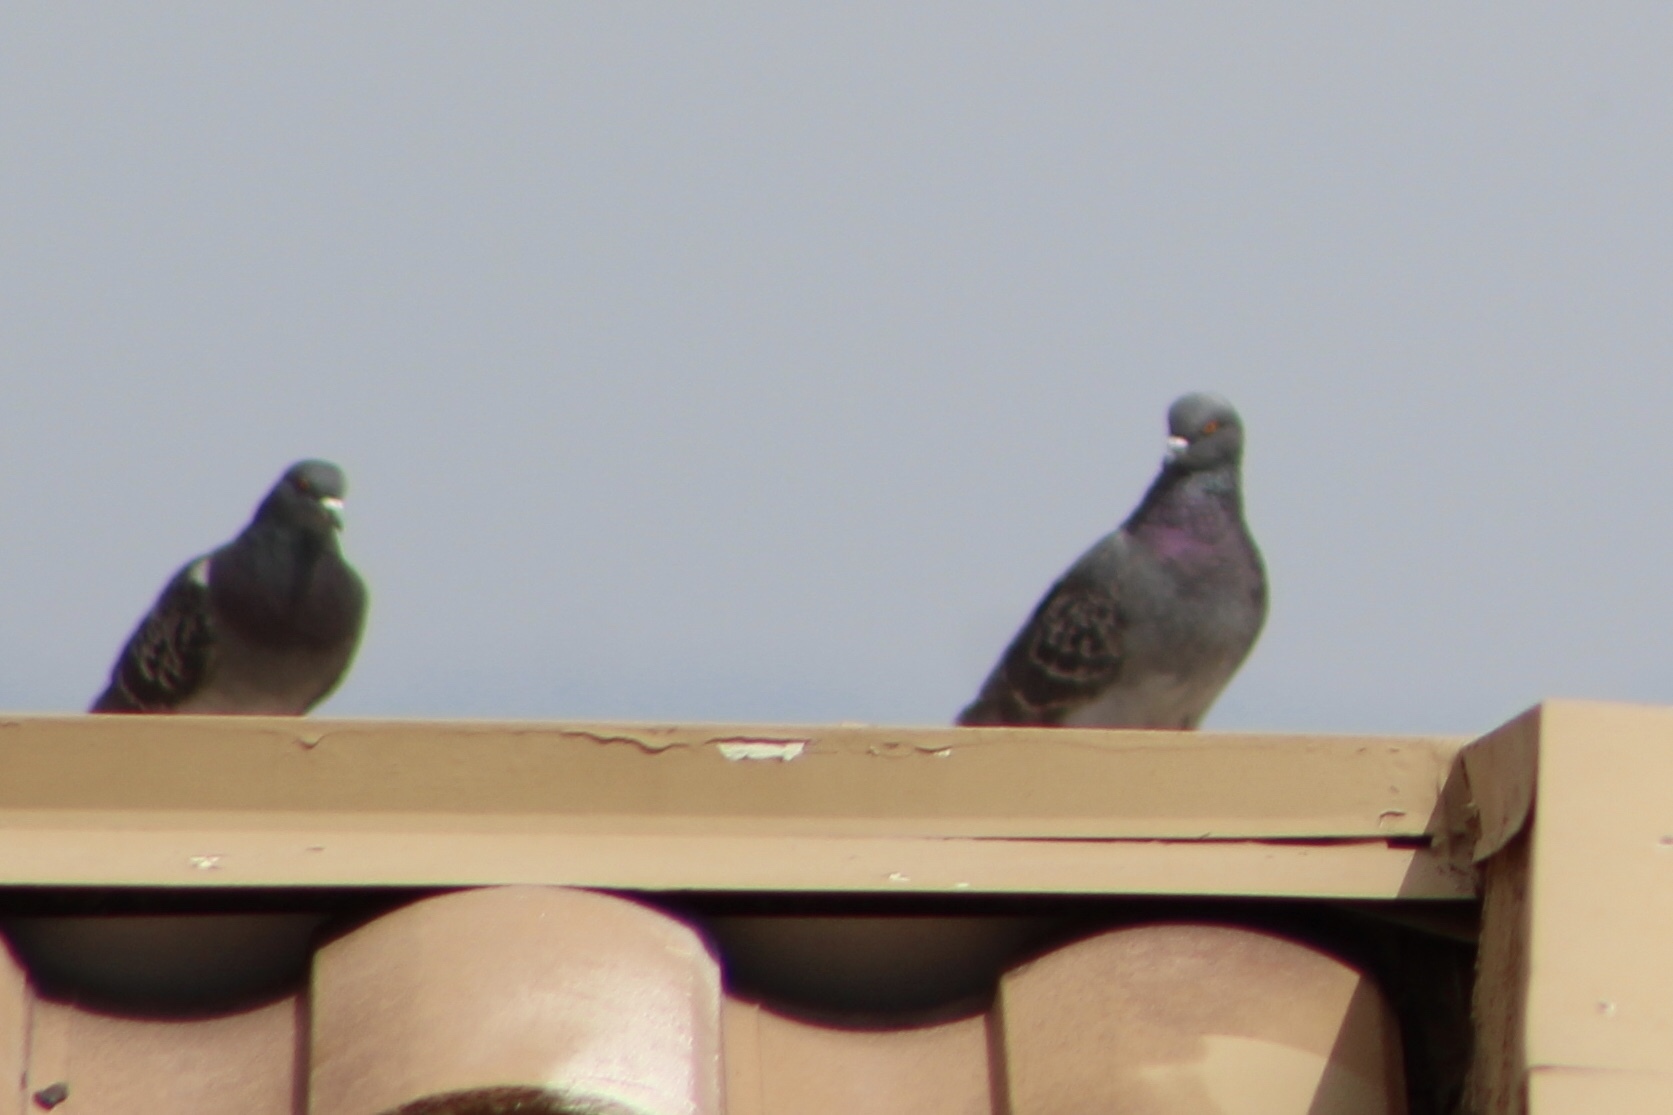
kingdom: Animalia
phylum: Chordata
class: Aves
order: Columbiformes
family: Columbidae
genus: Columba
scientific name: Columba livia
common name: Rock pigeon
